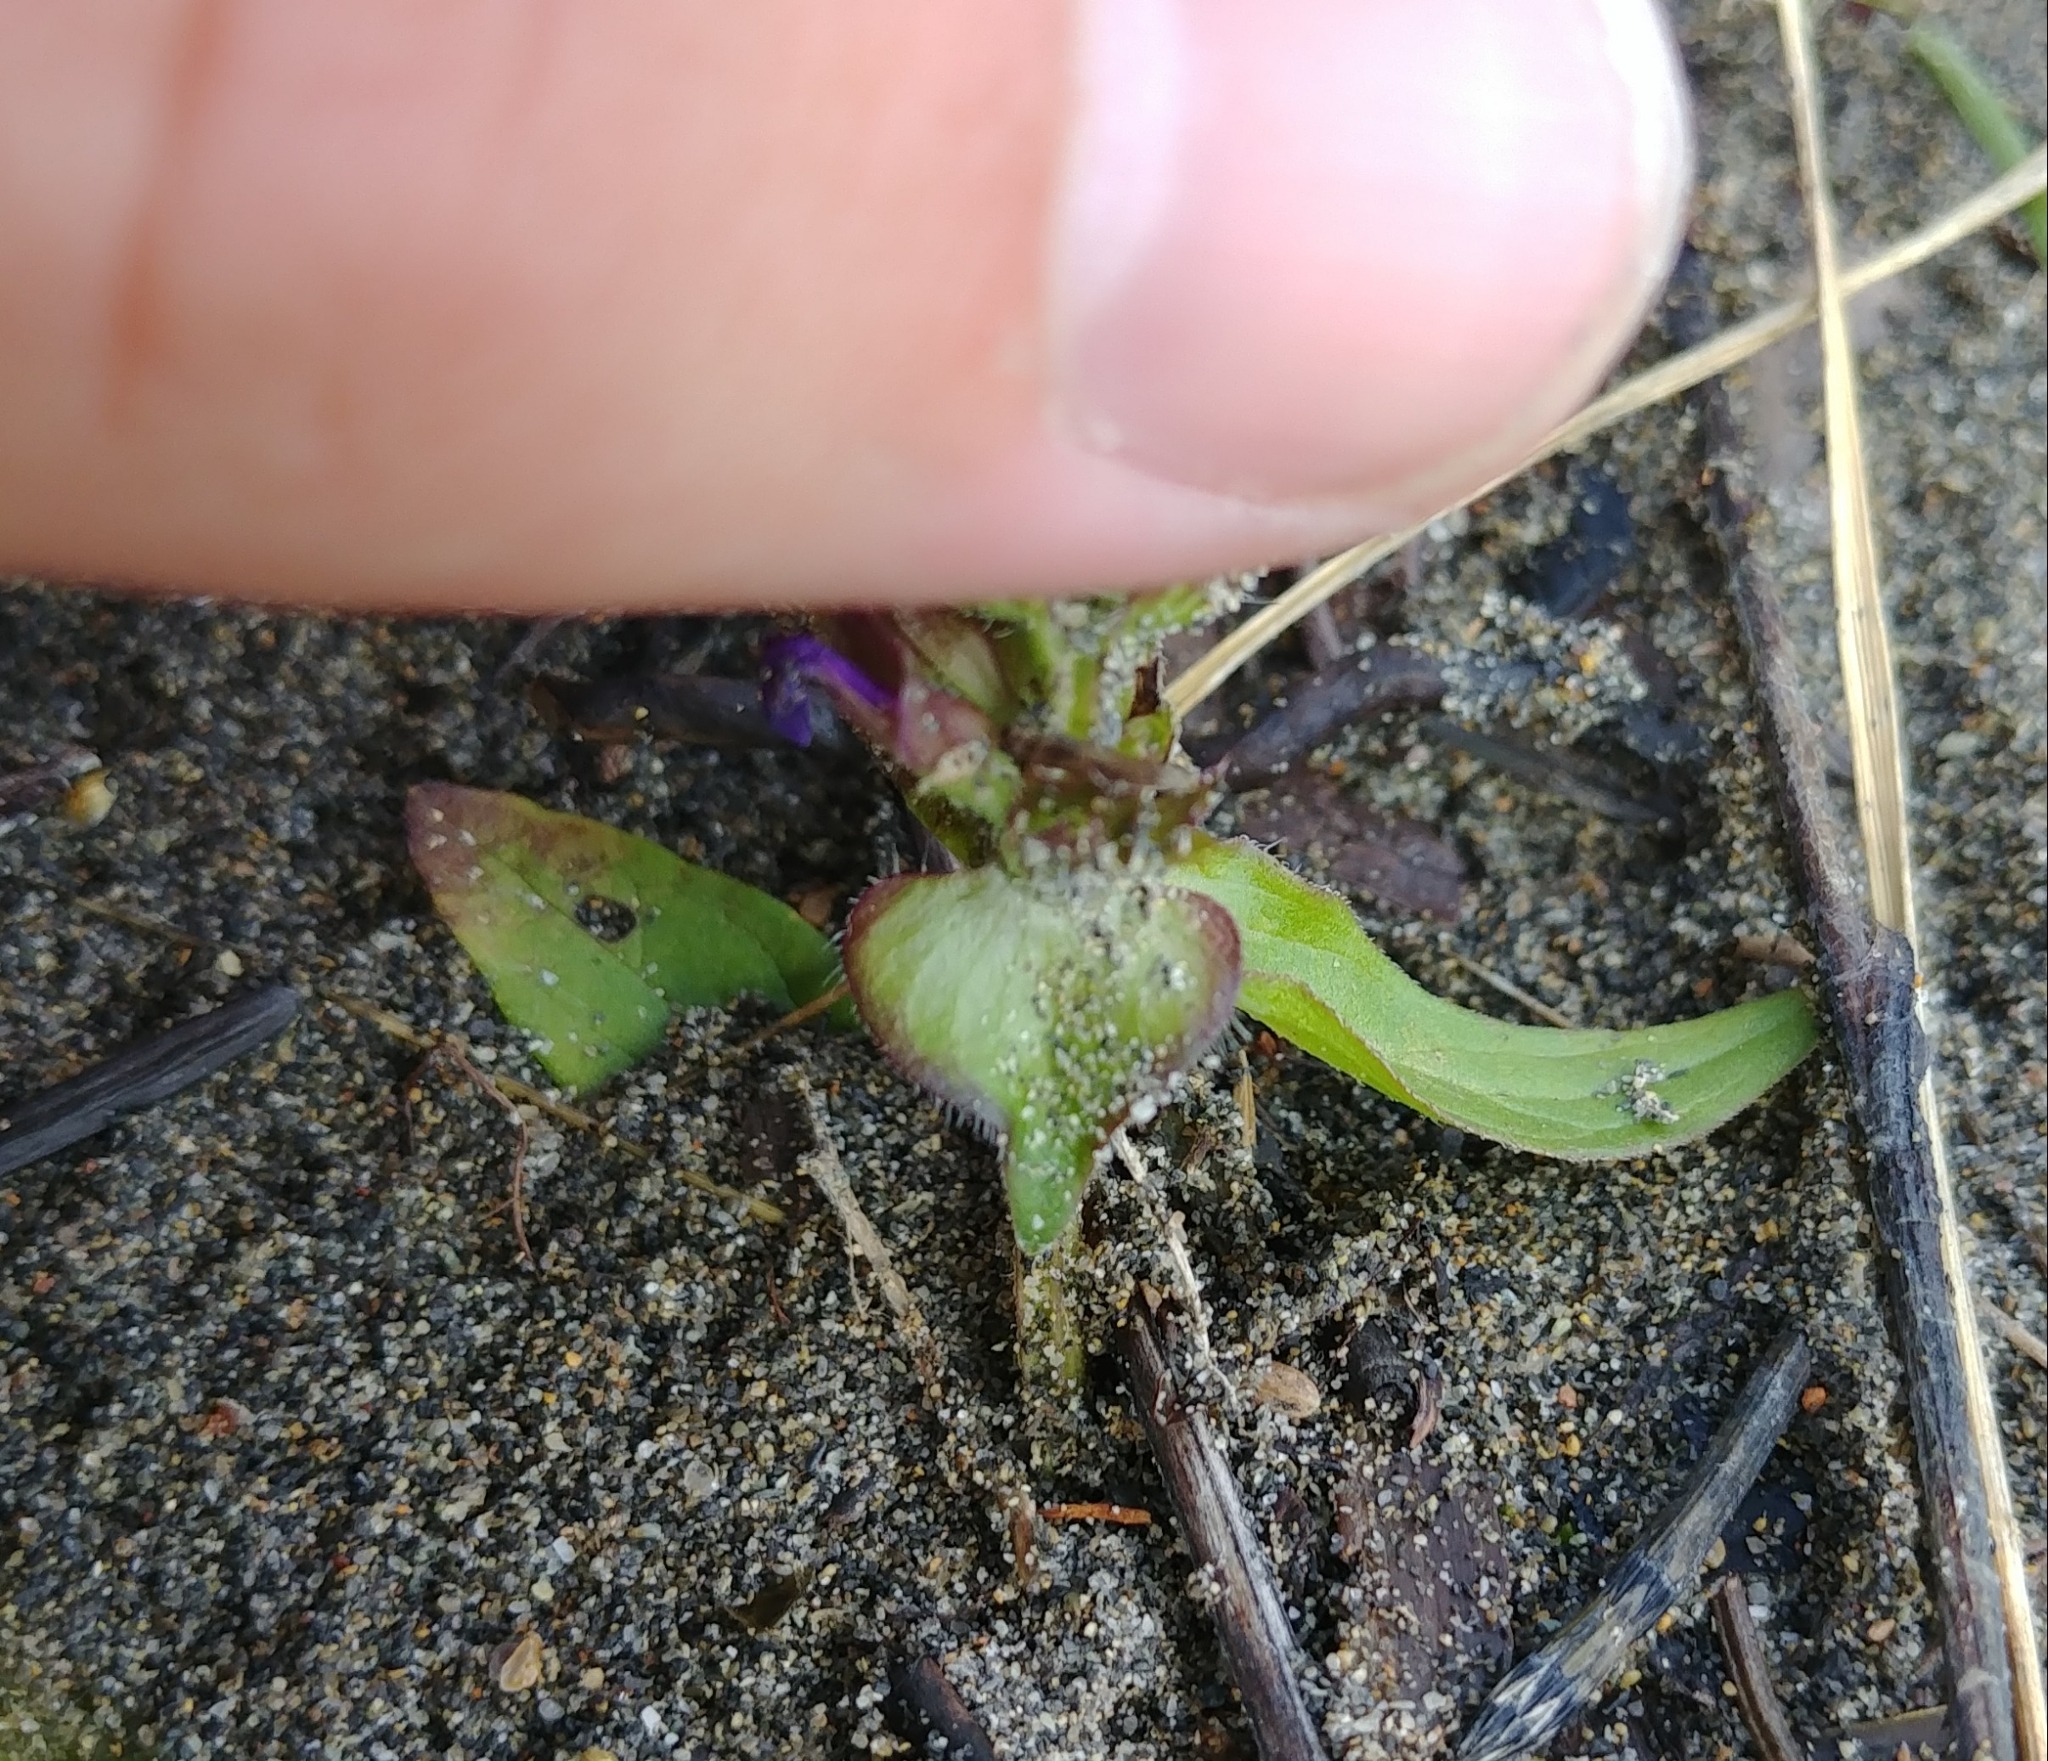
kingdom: Plantae
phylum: Tracheophyta
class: Magnoliopsida
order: Lamiales
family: Lamiaceae
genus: Prunella
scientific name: Prunella vulgaris
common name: Heal-all
